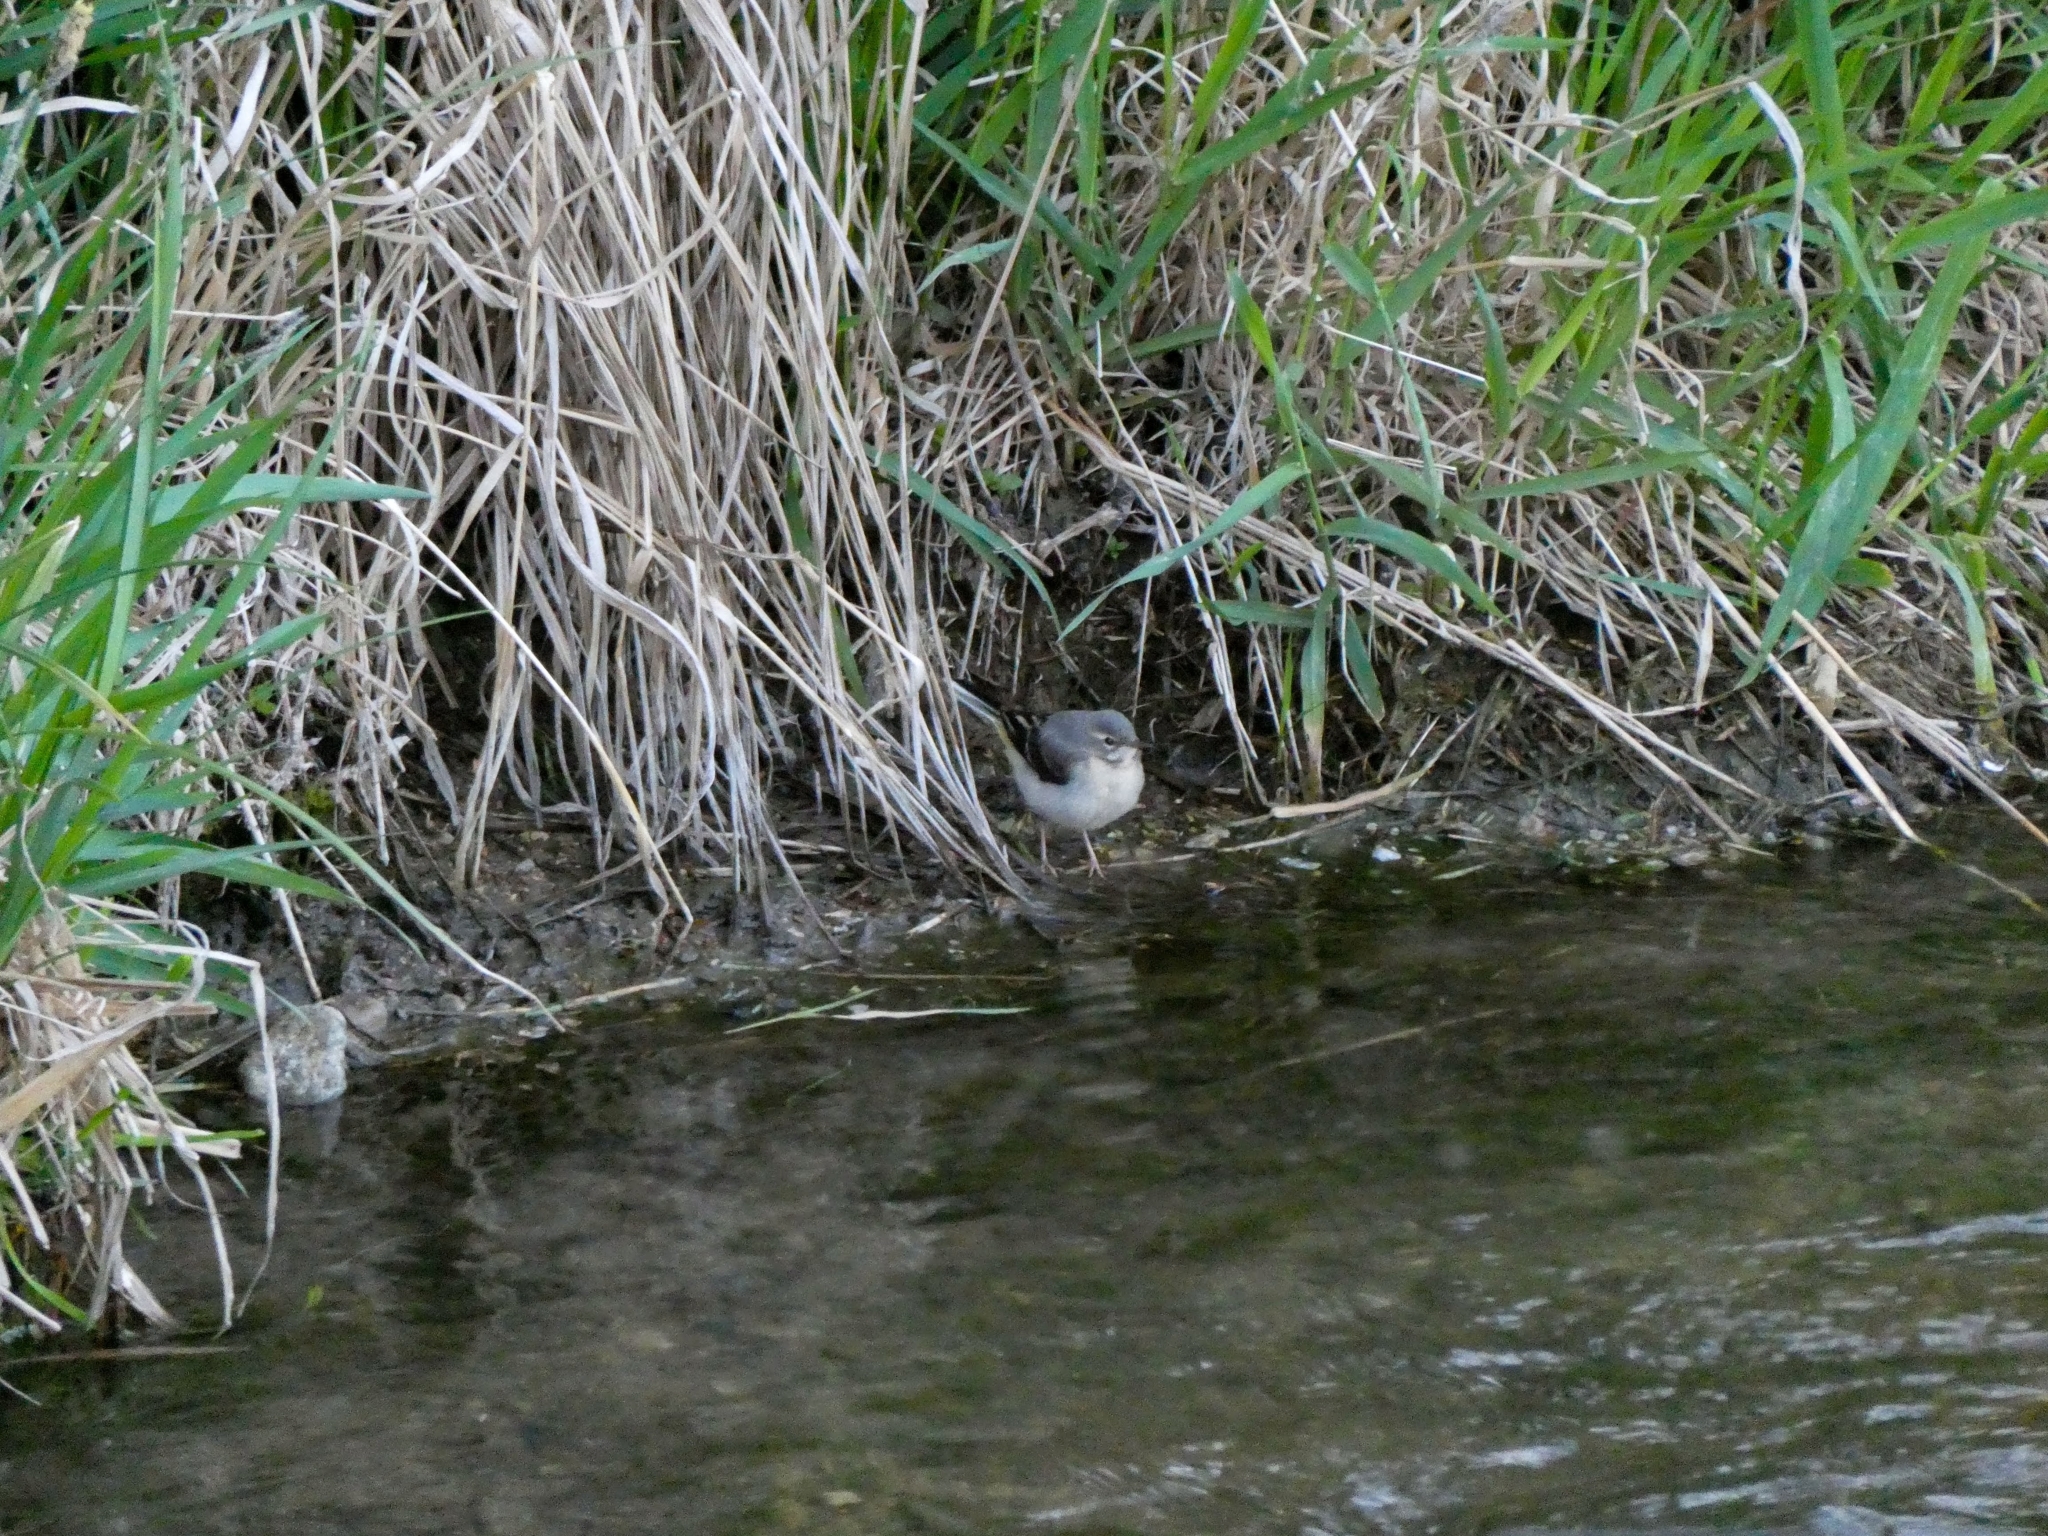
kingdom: Animalia
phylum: Chordata
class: Aves
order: Passeriformes
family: Motacillidae
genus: Motacilla
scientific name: Motacilla cinerea
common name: Grey wagtail
